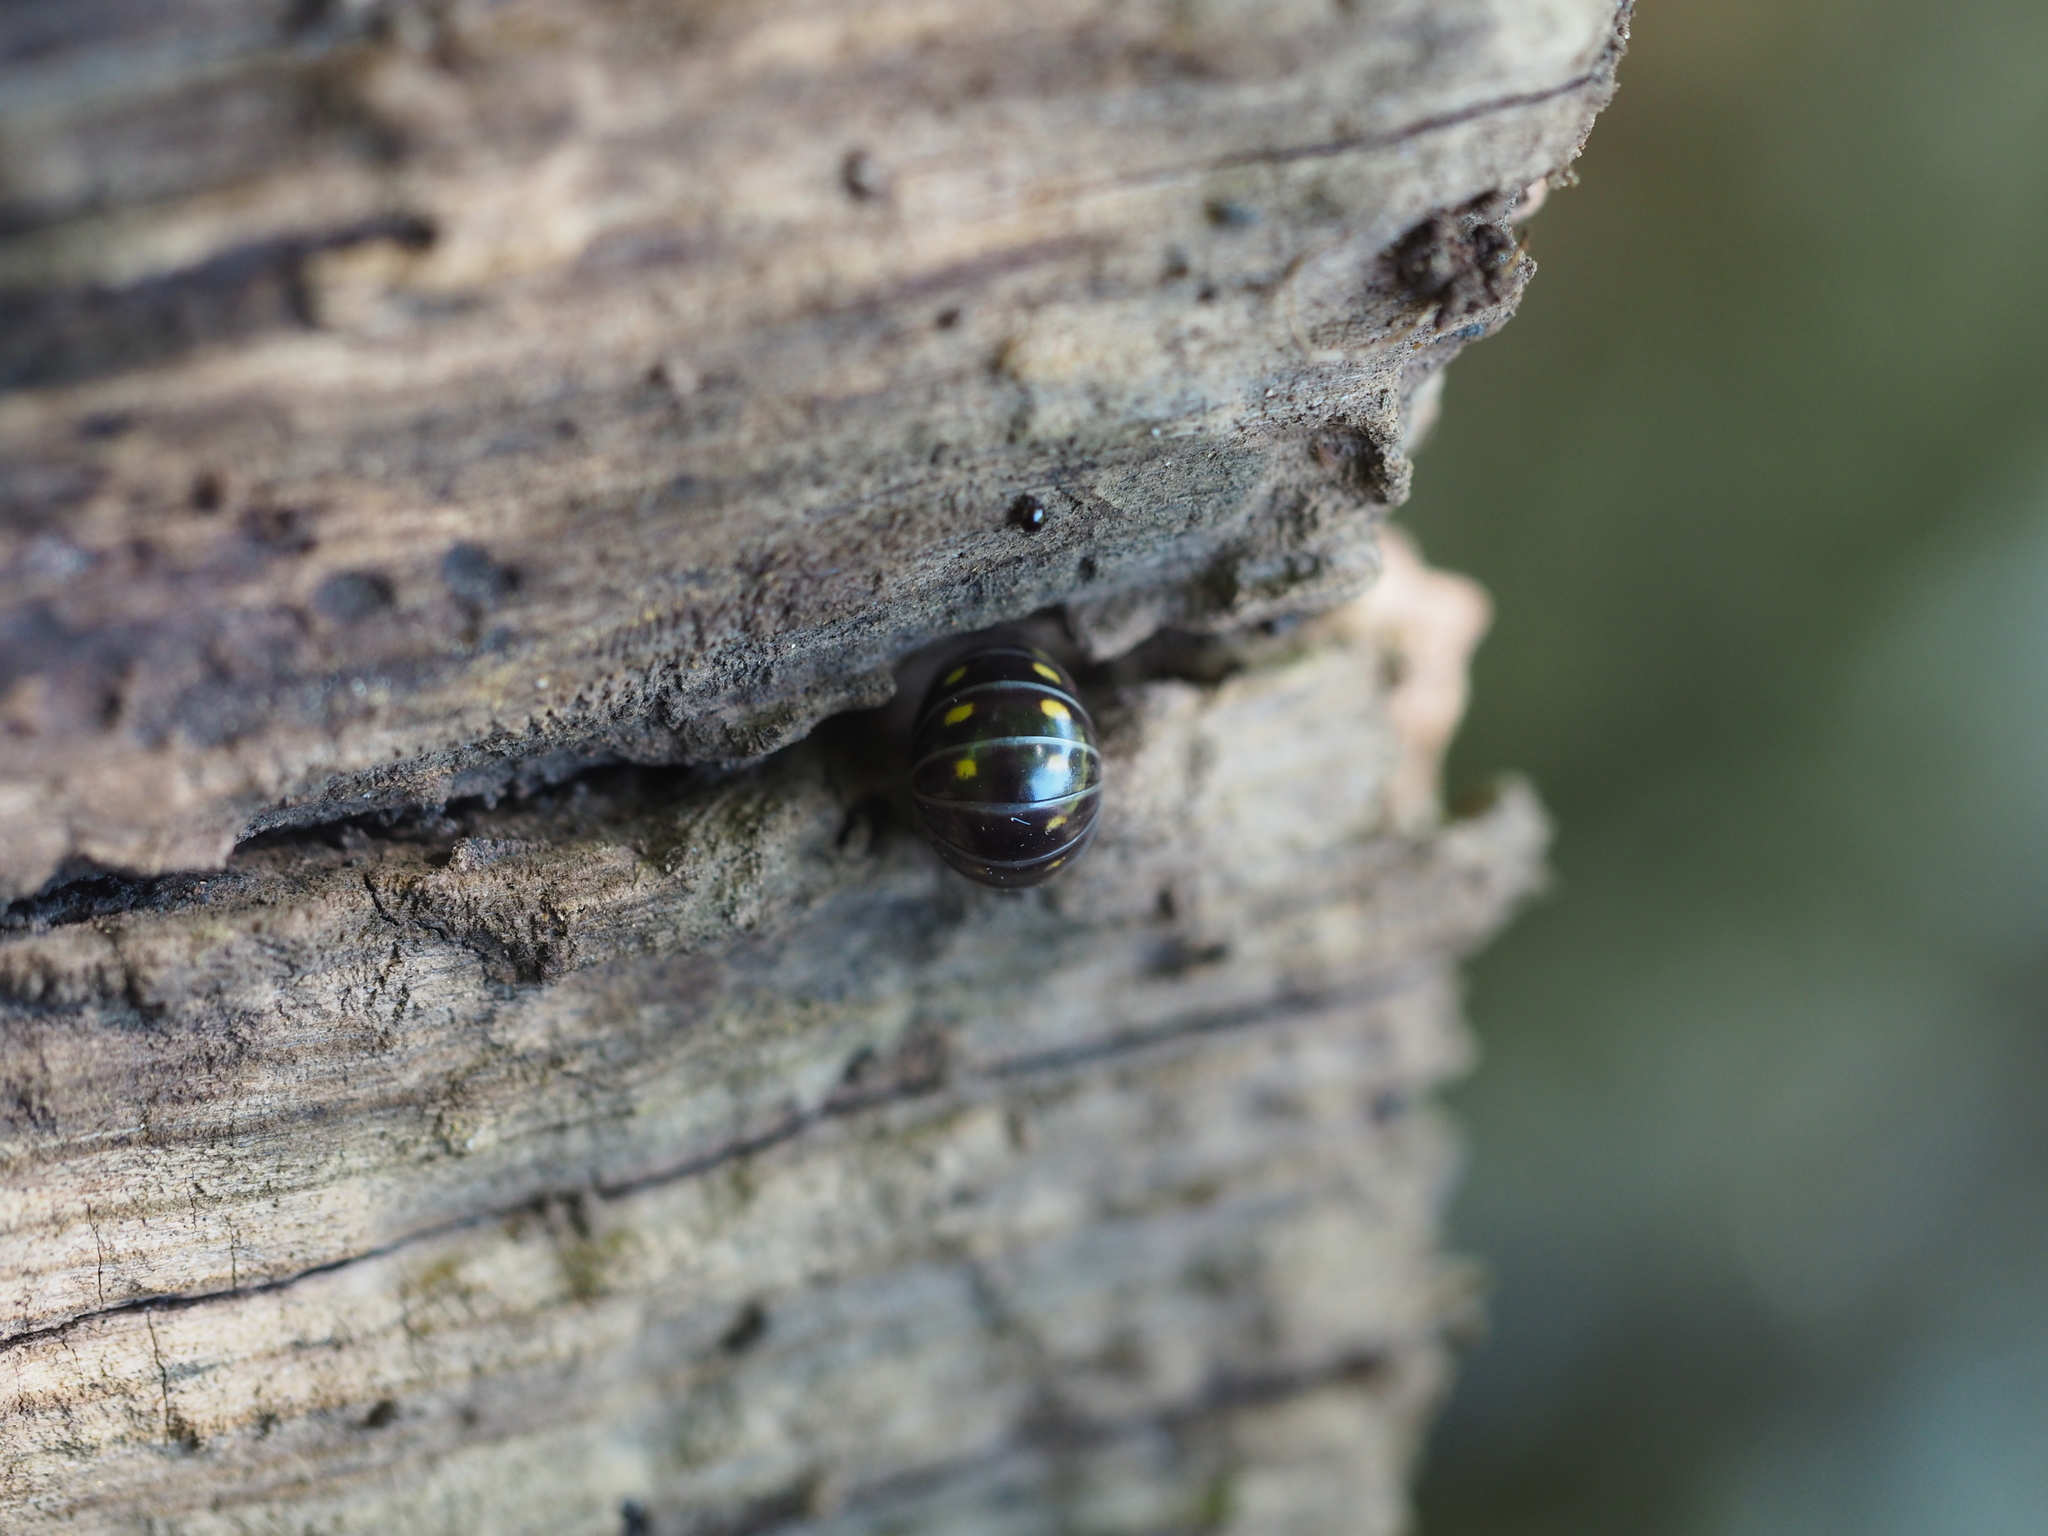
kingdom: Animalia
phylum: Arthropoda
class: Diplopoda
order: Glomerida
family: Glomeridae
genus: Glomeris
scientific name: Glomeris pustulata
